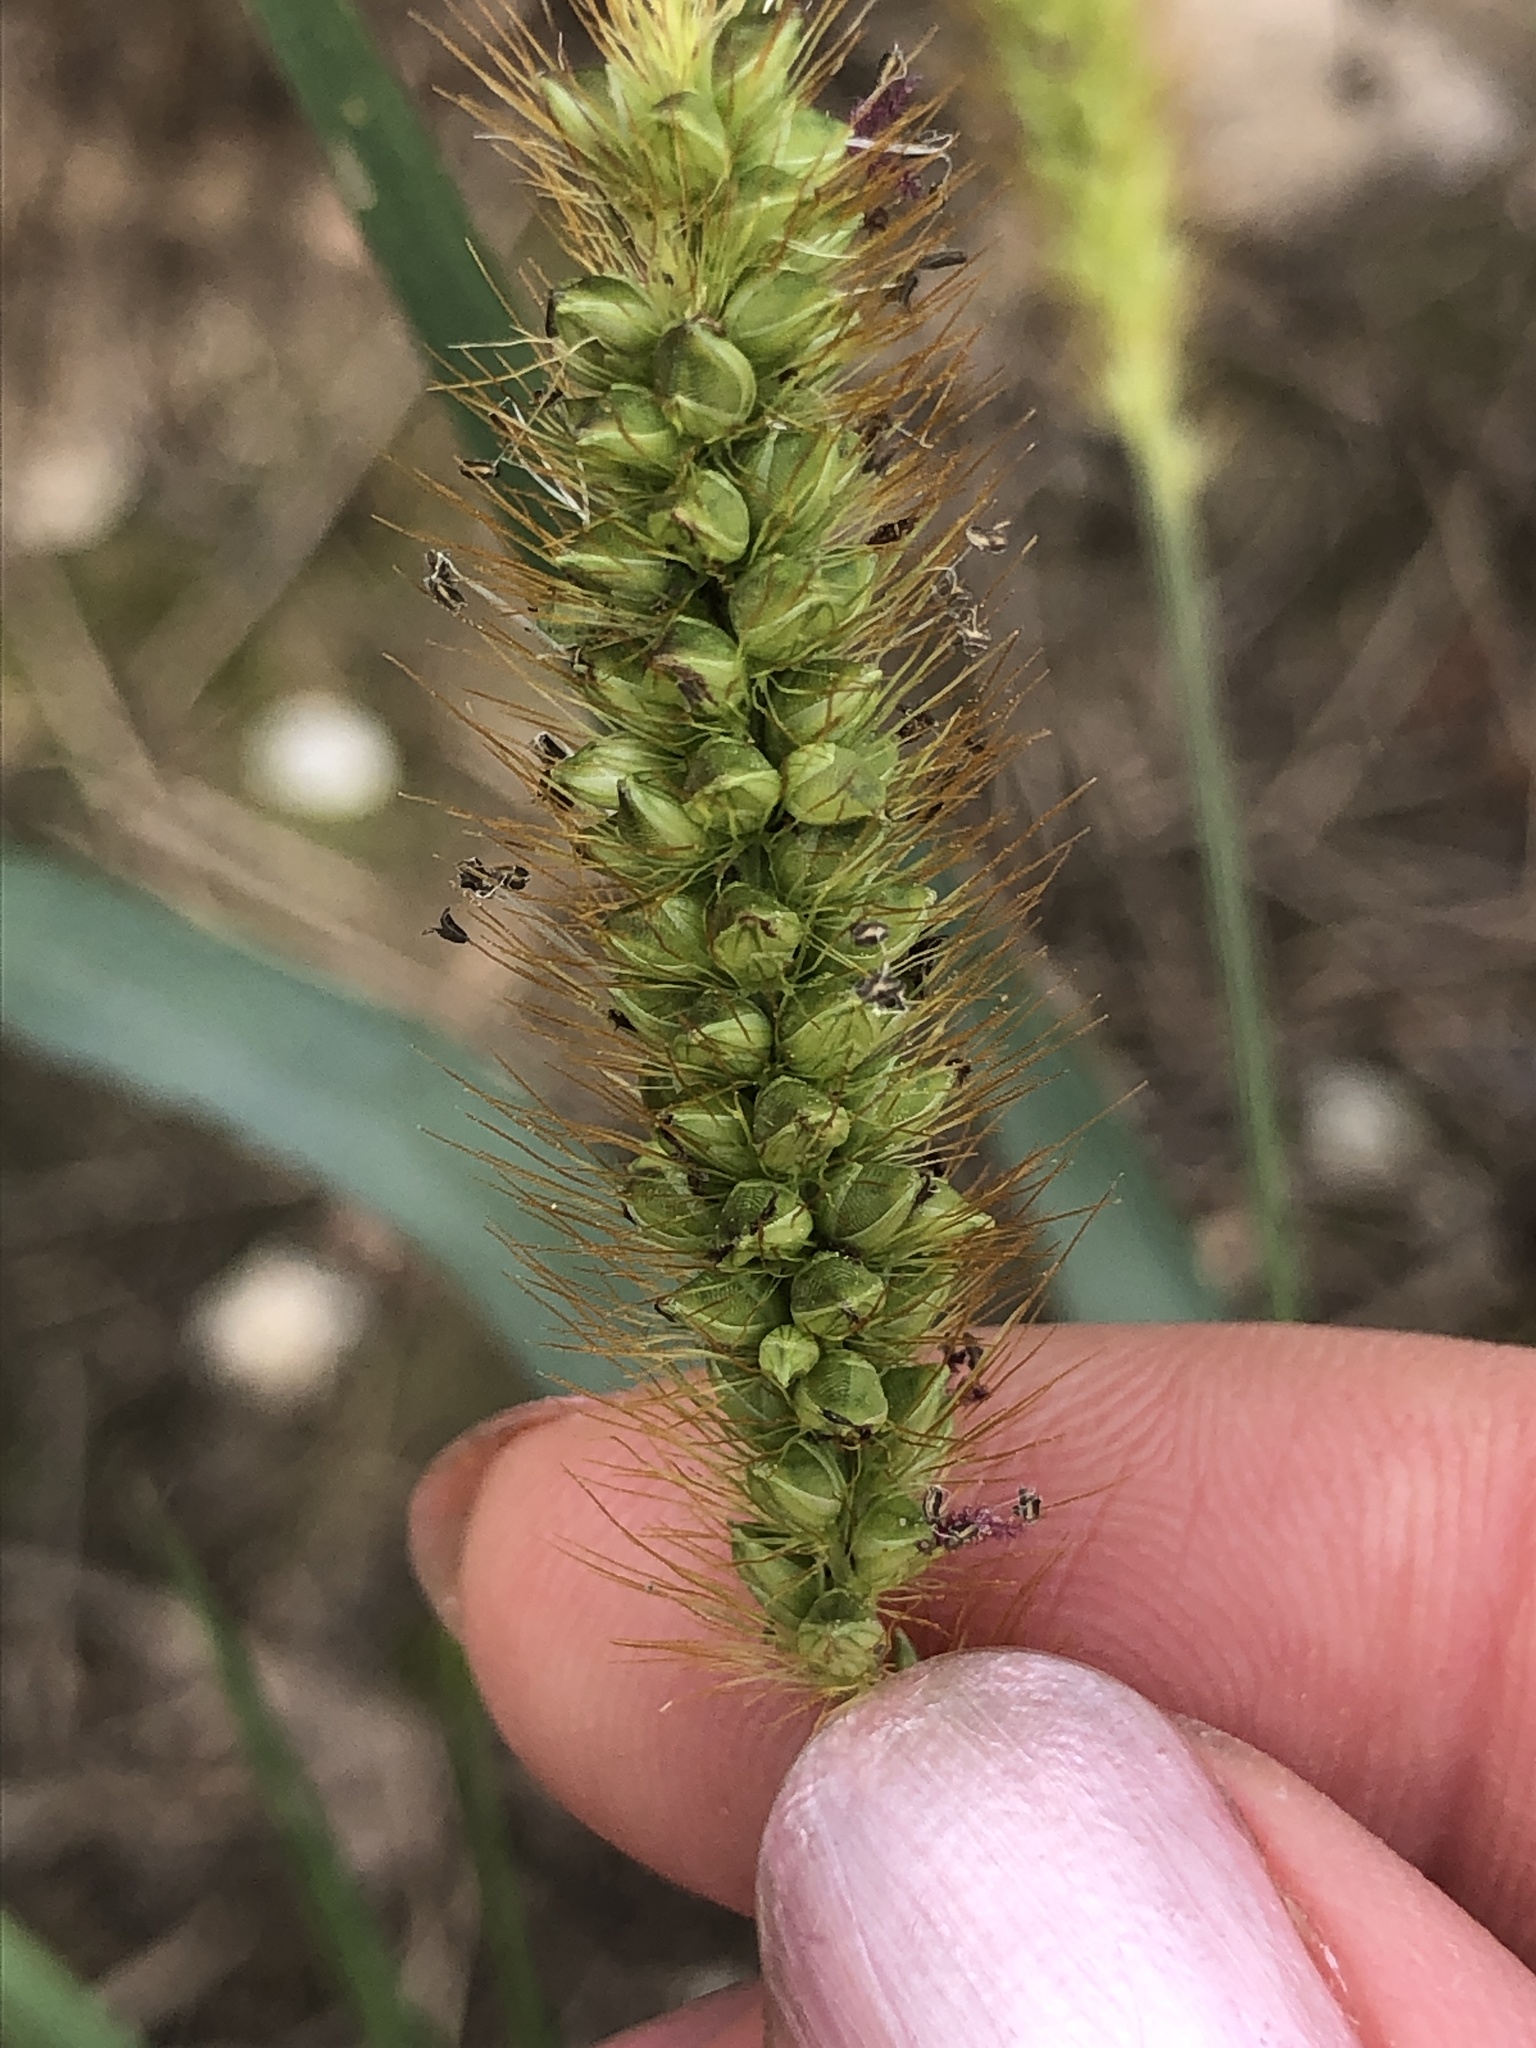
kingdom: Plantae
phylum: Tracheophyta
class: Liliopsida
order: Poales
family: Poaceae
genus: Setaria
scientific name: Setaria pumila
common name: Yellow bristle-grass
